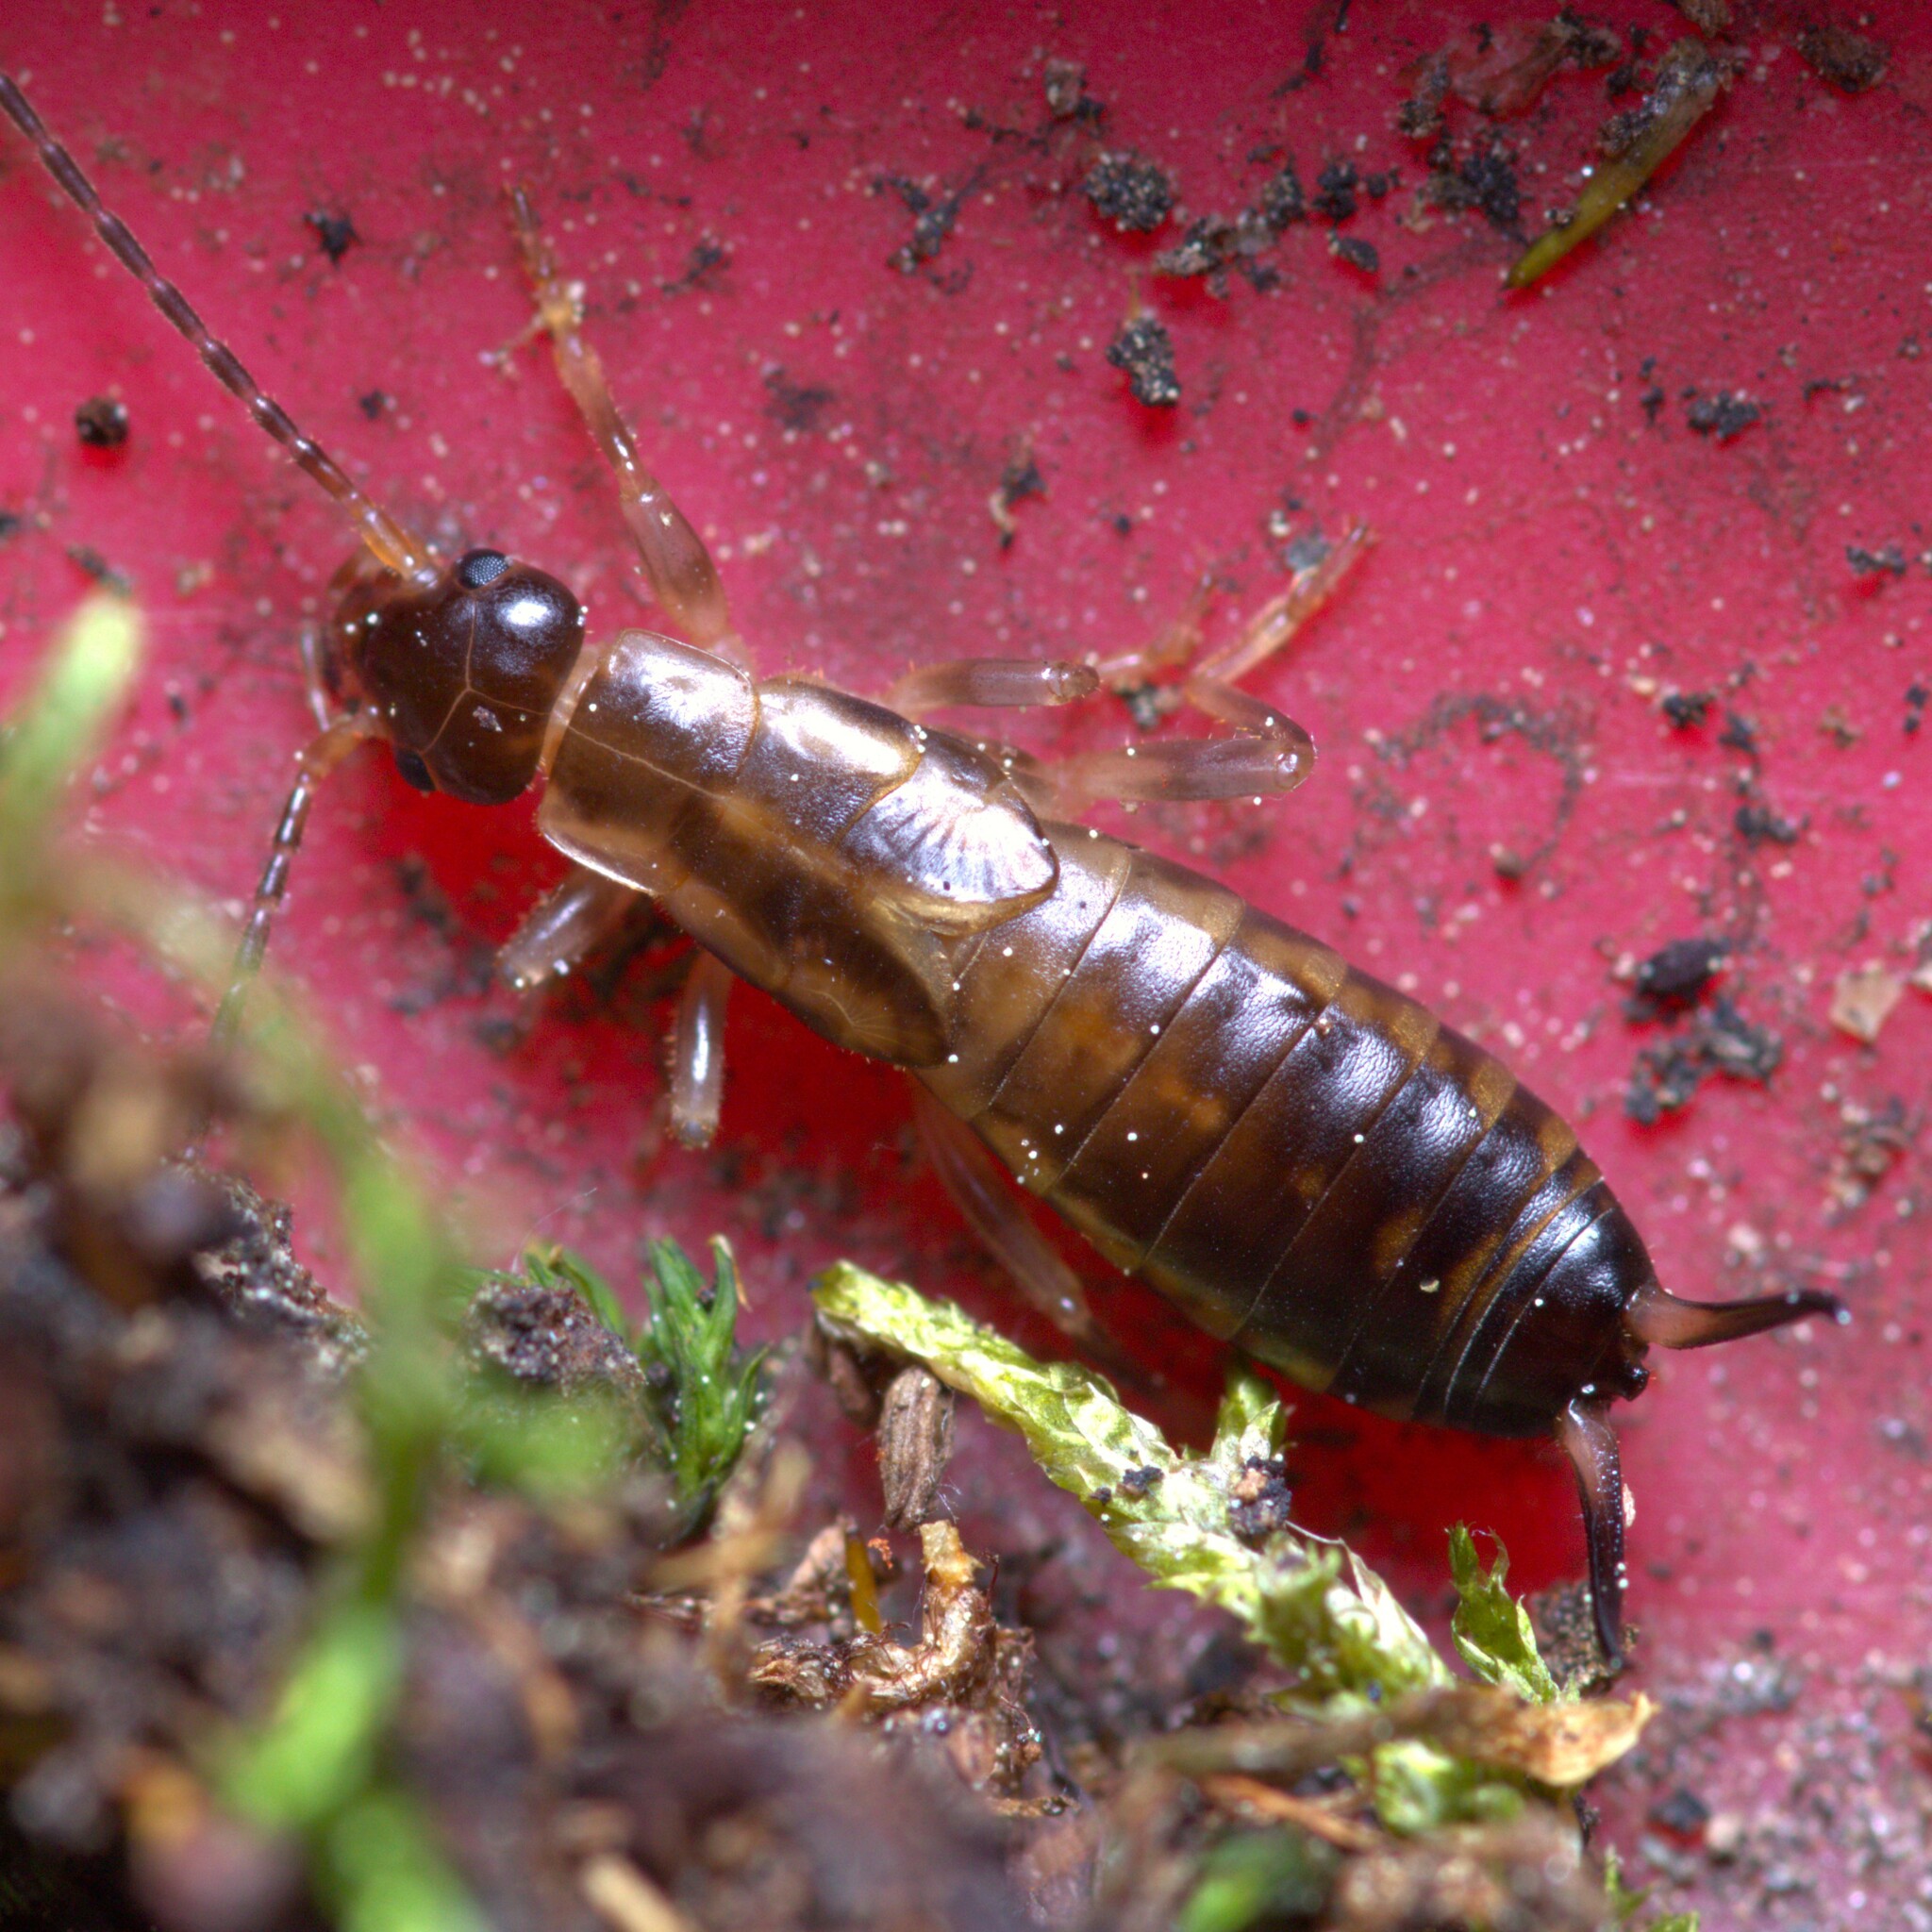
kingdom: Animalia
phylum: Arthropoda
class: Insecta
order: Dermaptera
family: Forficulidae
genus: Forficula
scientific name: Forficula
